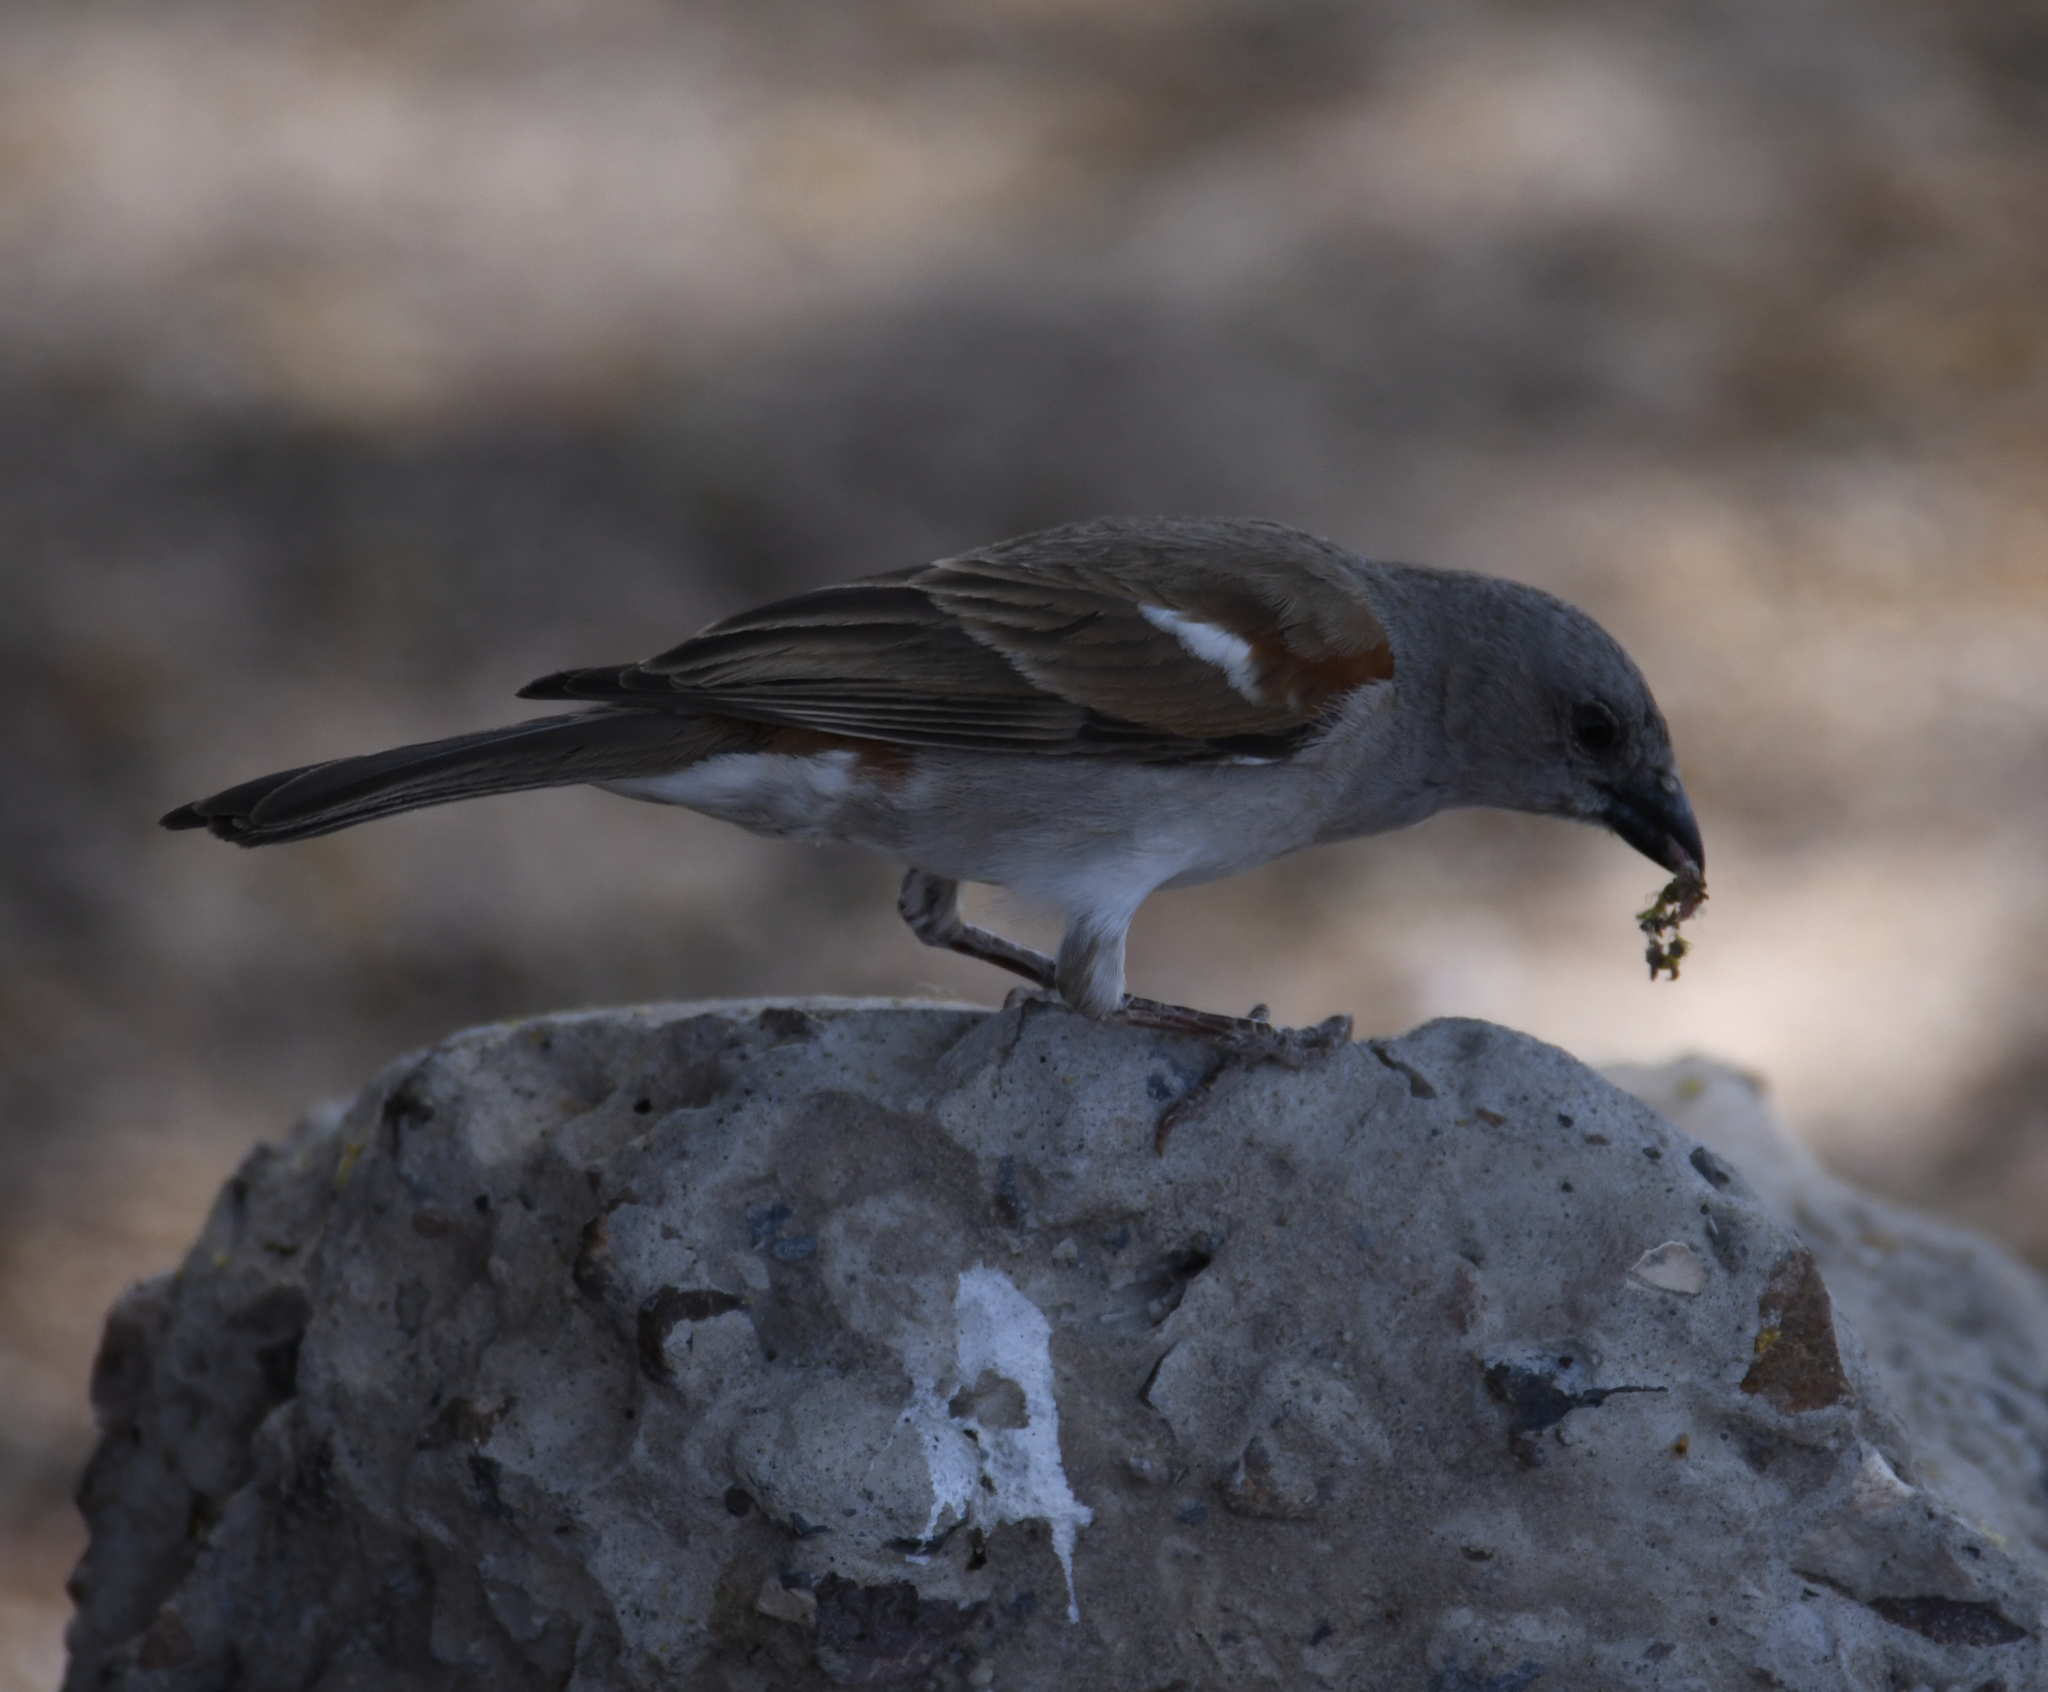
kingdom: Animalia
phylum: Chordata
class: Aves
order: Passeriformes
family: Passeridae
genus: Passer
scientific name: Passer diffusus
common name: Southern grey-headed sparrow
